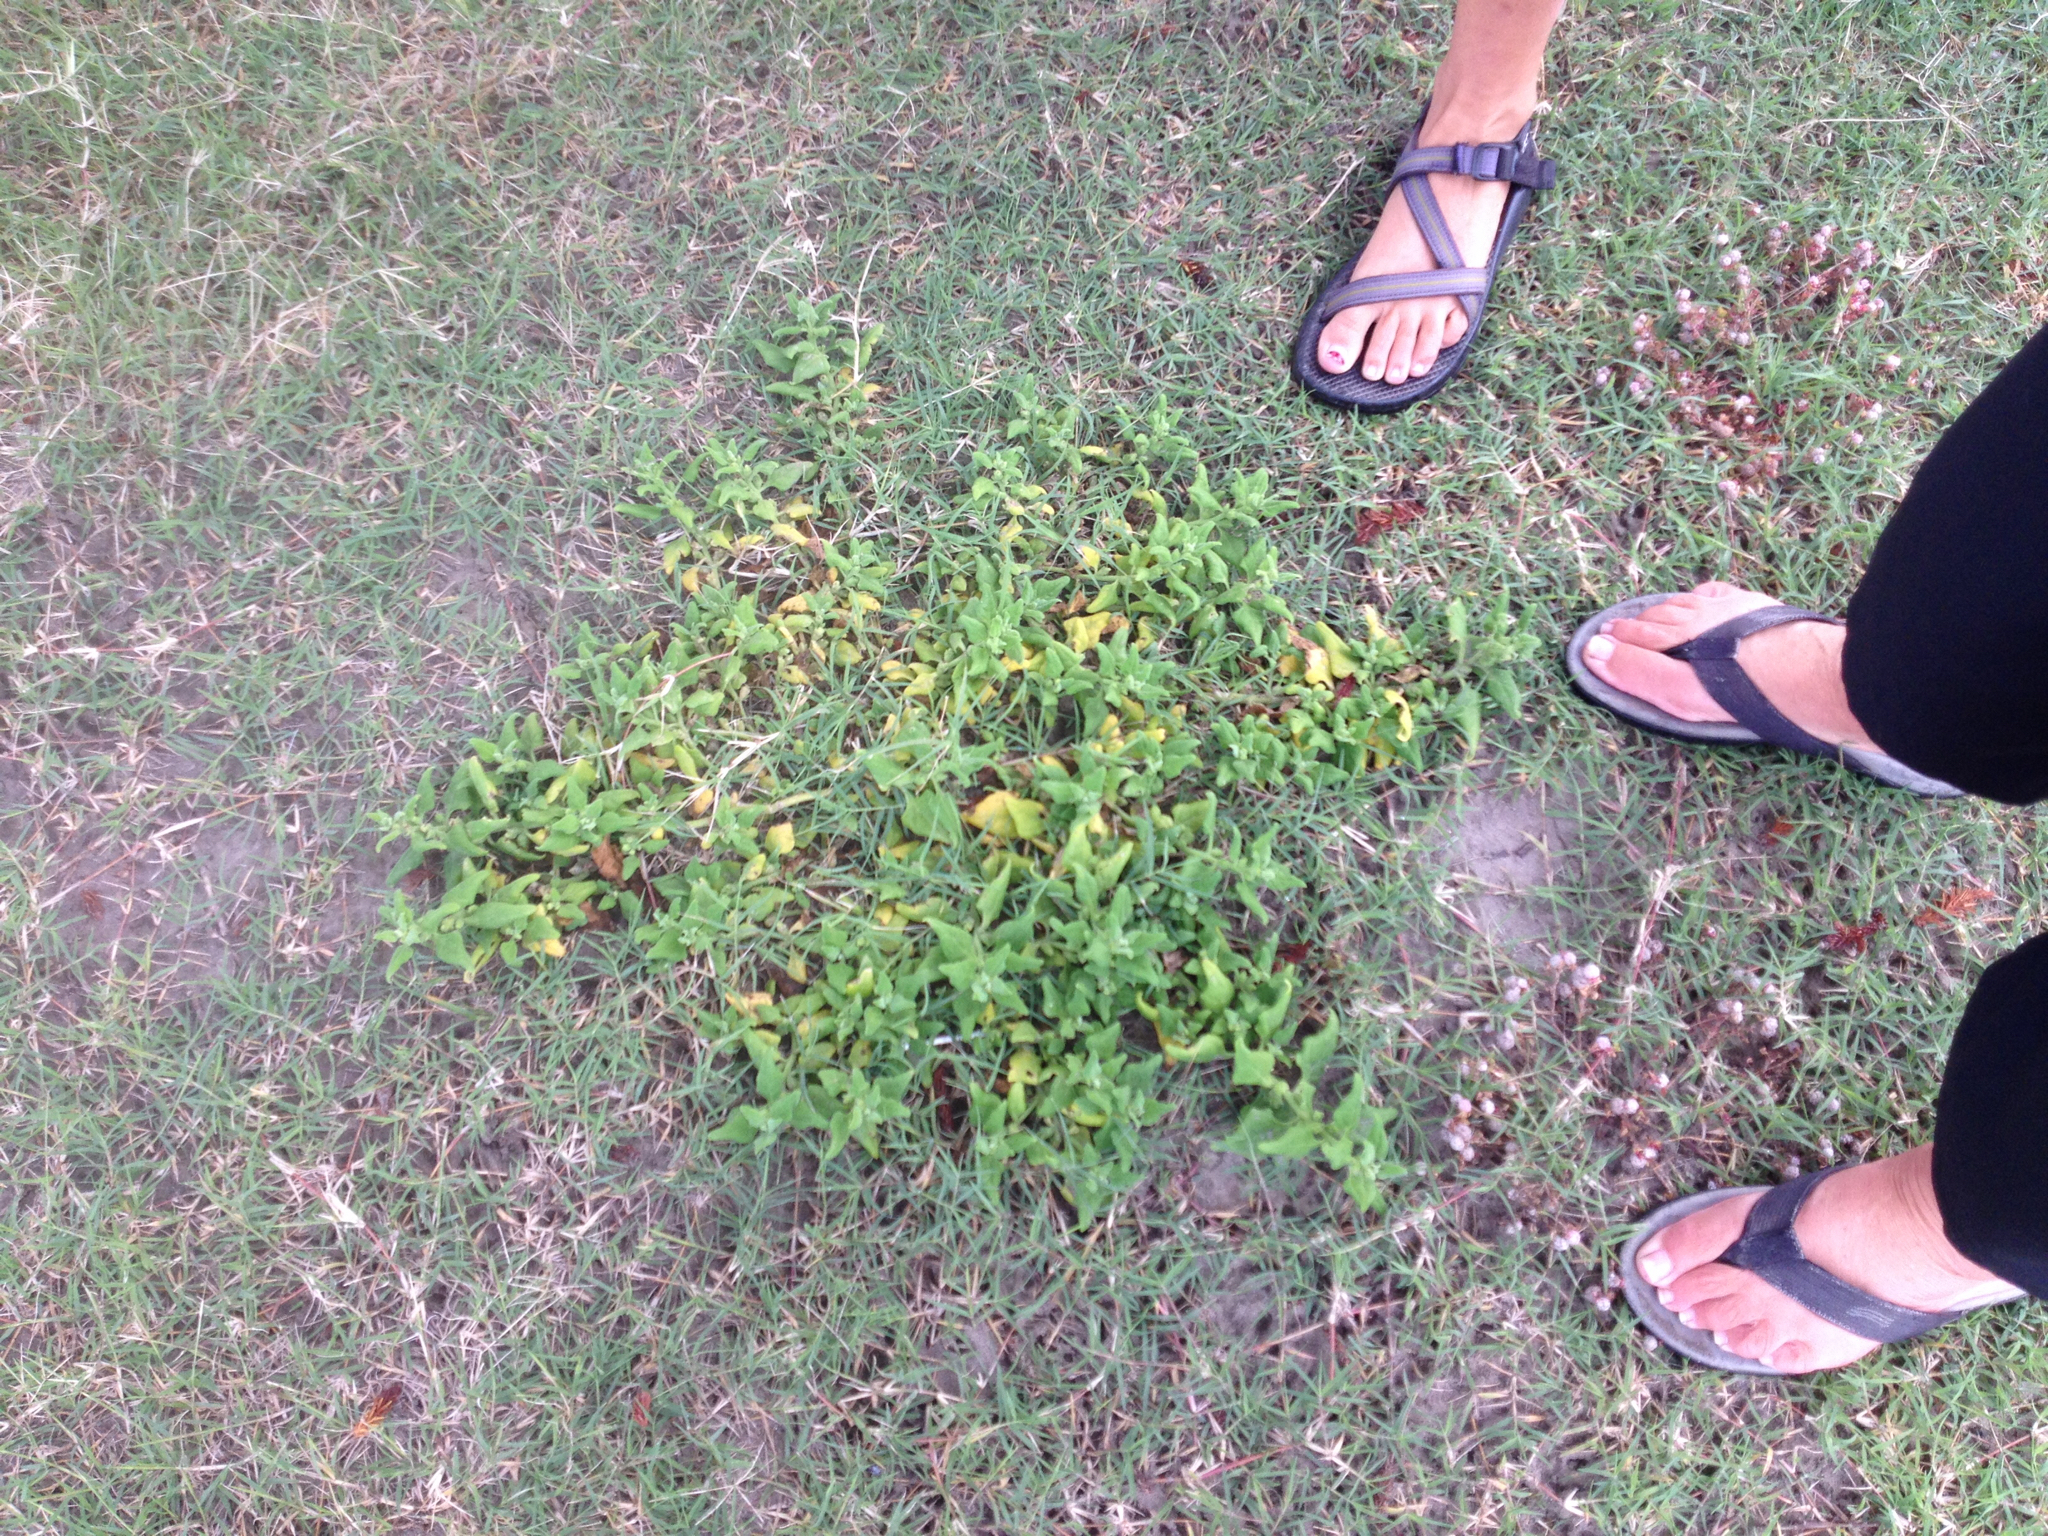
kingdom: Plantae
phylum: Tracheophyta
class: Magnoliopsida
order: Caryophyllales
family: Aizoaceae
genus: Tetragonia
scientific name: Tetragonia tetragonoides
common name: New zealand-spinach
